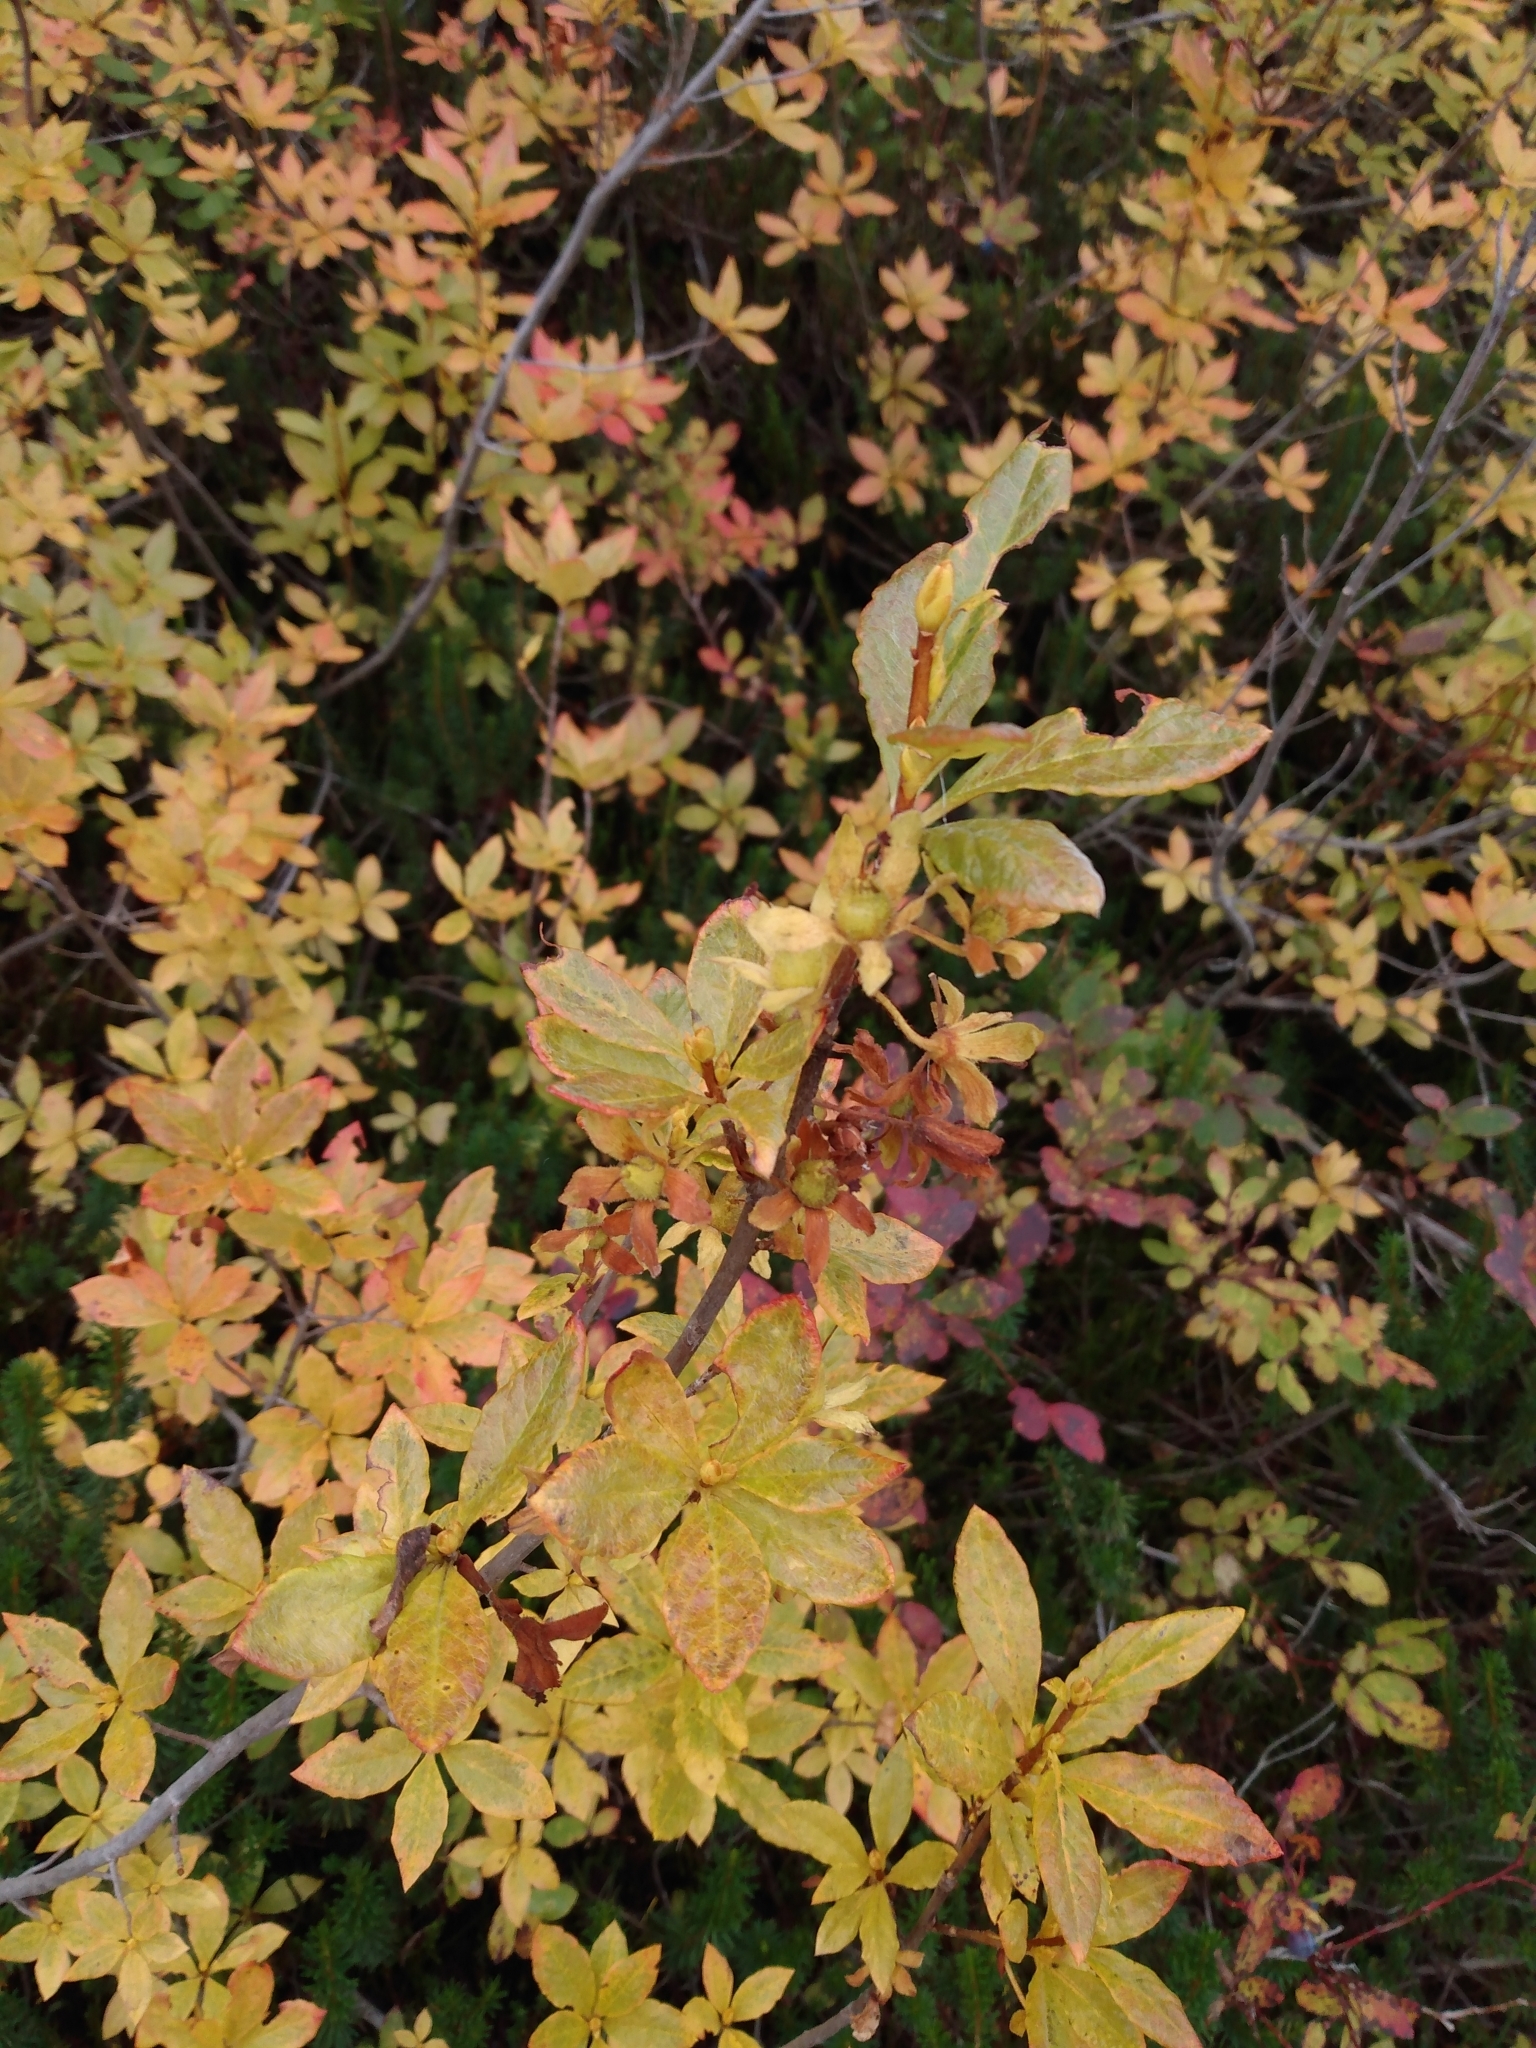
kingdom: Plantae
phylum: Tracheophyta
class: Magnoliopsida
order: Ericales
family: Ericaceae
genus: Rhododendron
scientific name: Rhododendron albiflorum
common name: White rhododendron
